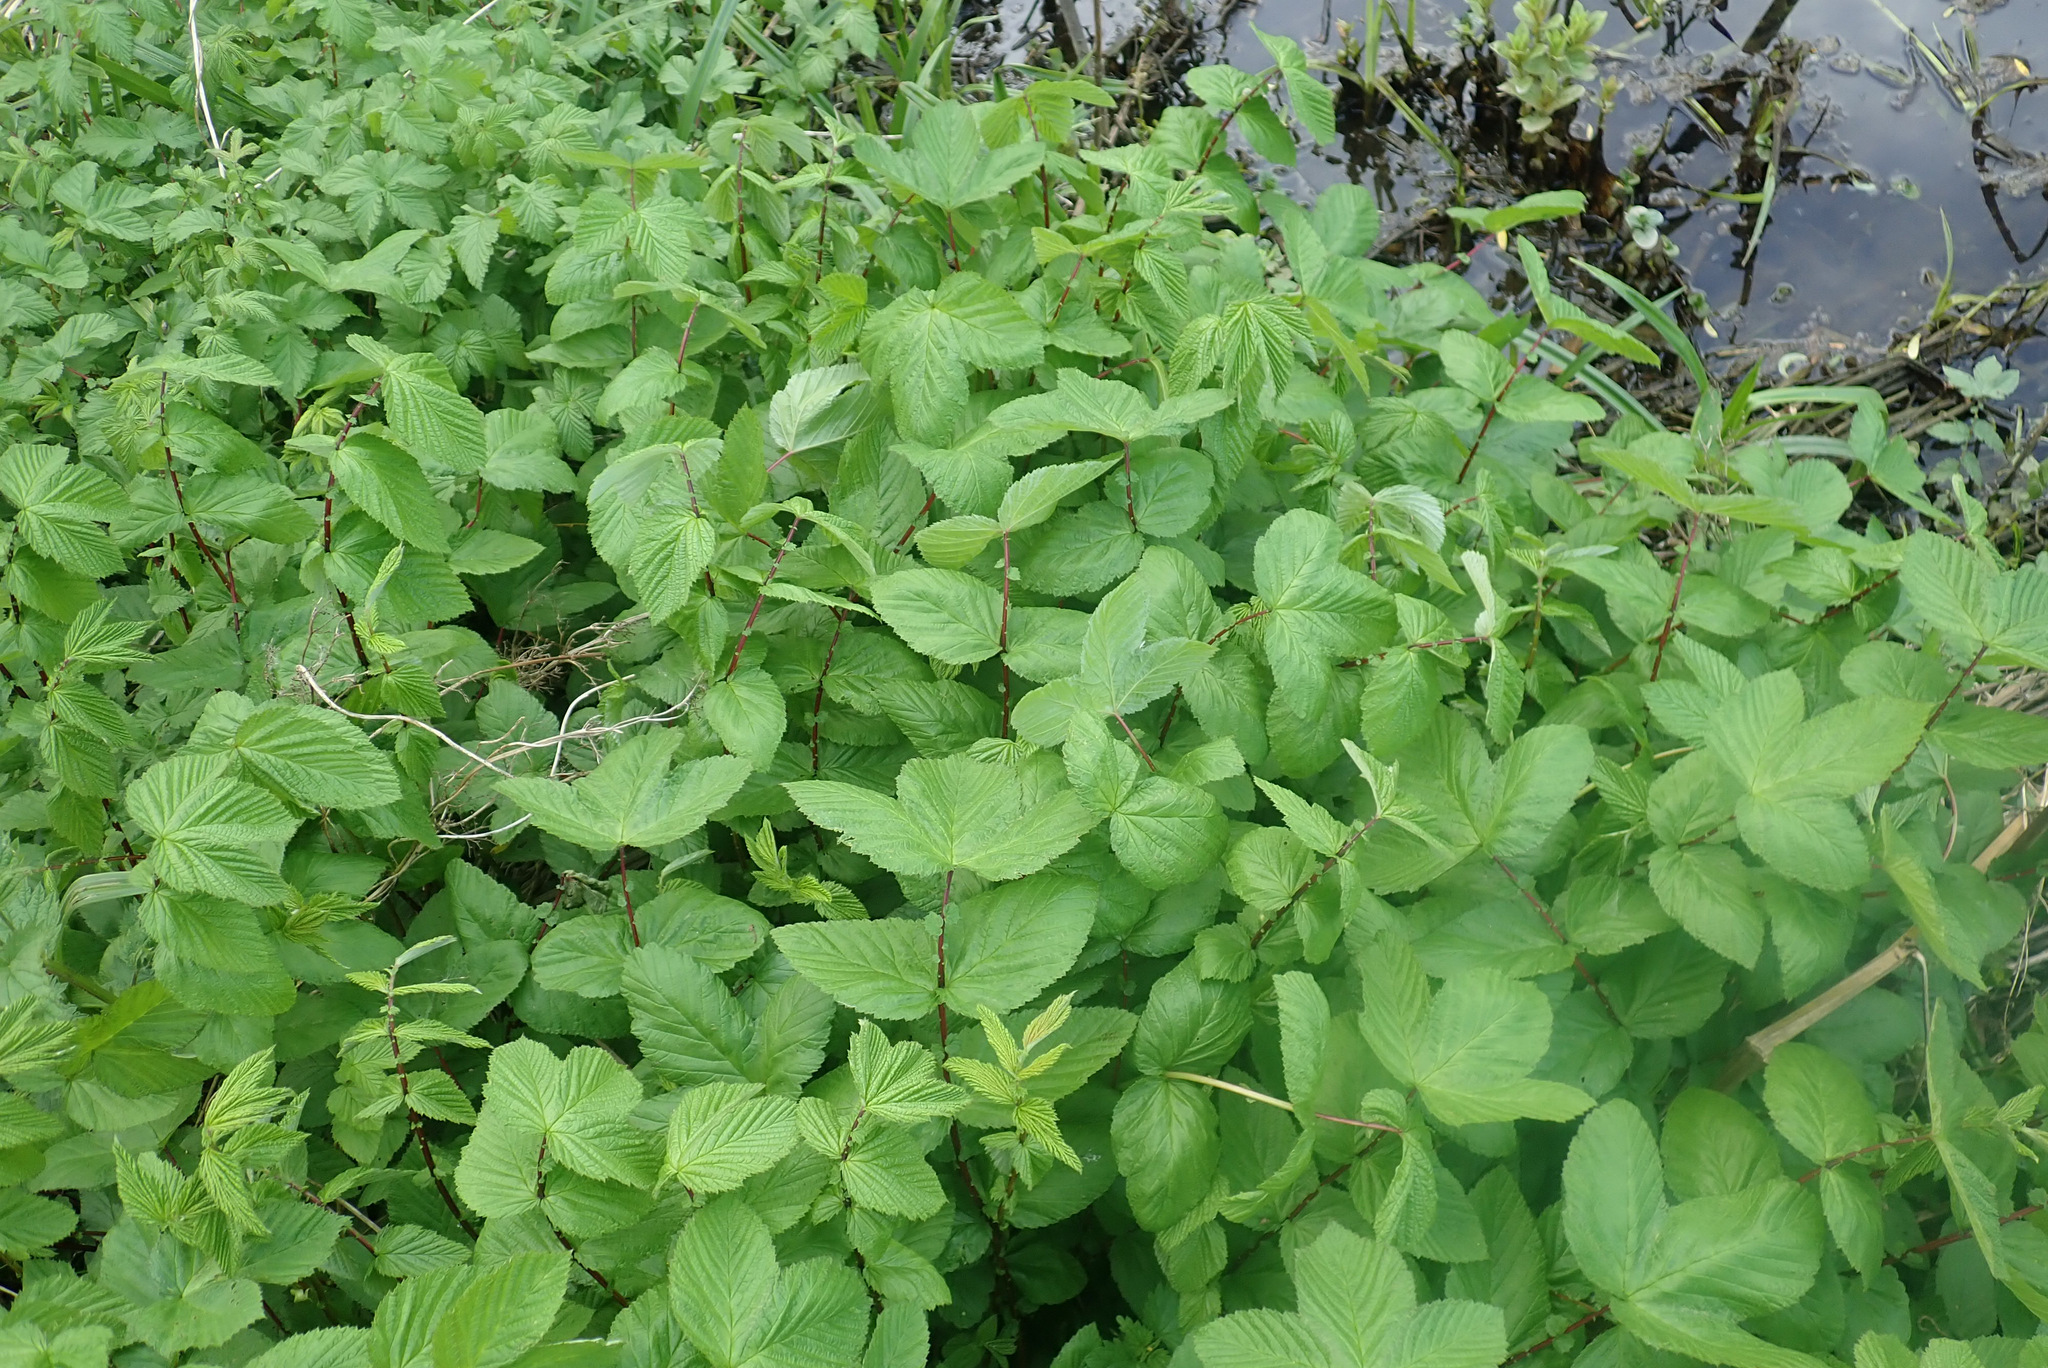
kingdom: Plantae
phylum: Tracheophyta
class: Magnoliopsida
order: Rosales
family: Rosaceae
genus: Filipendula
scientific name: Filipendula ulmaria
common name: Meadowsweet
